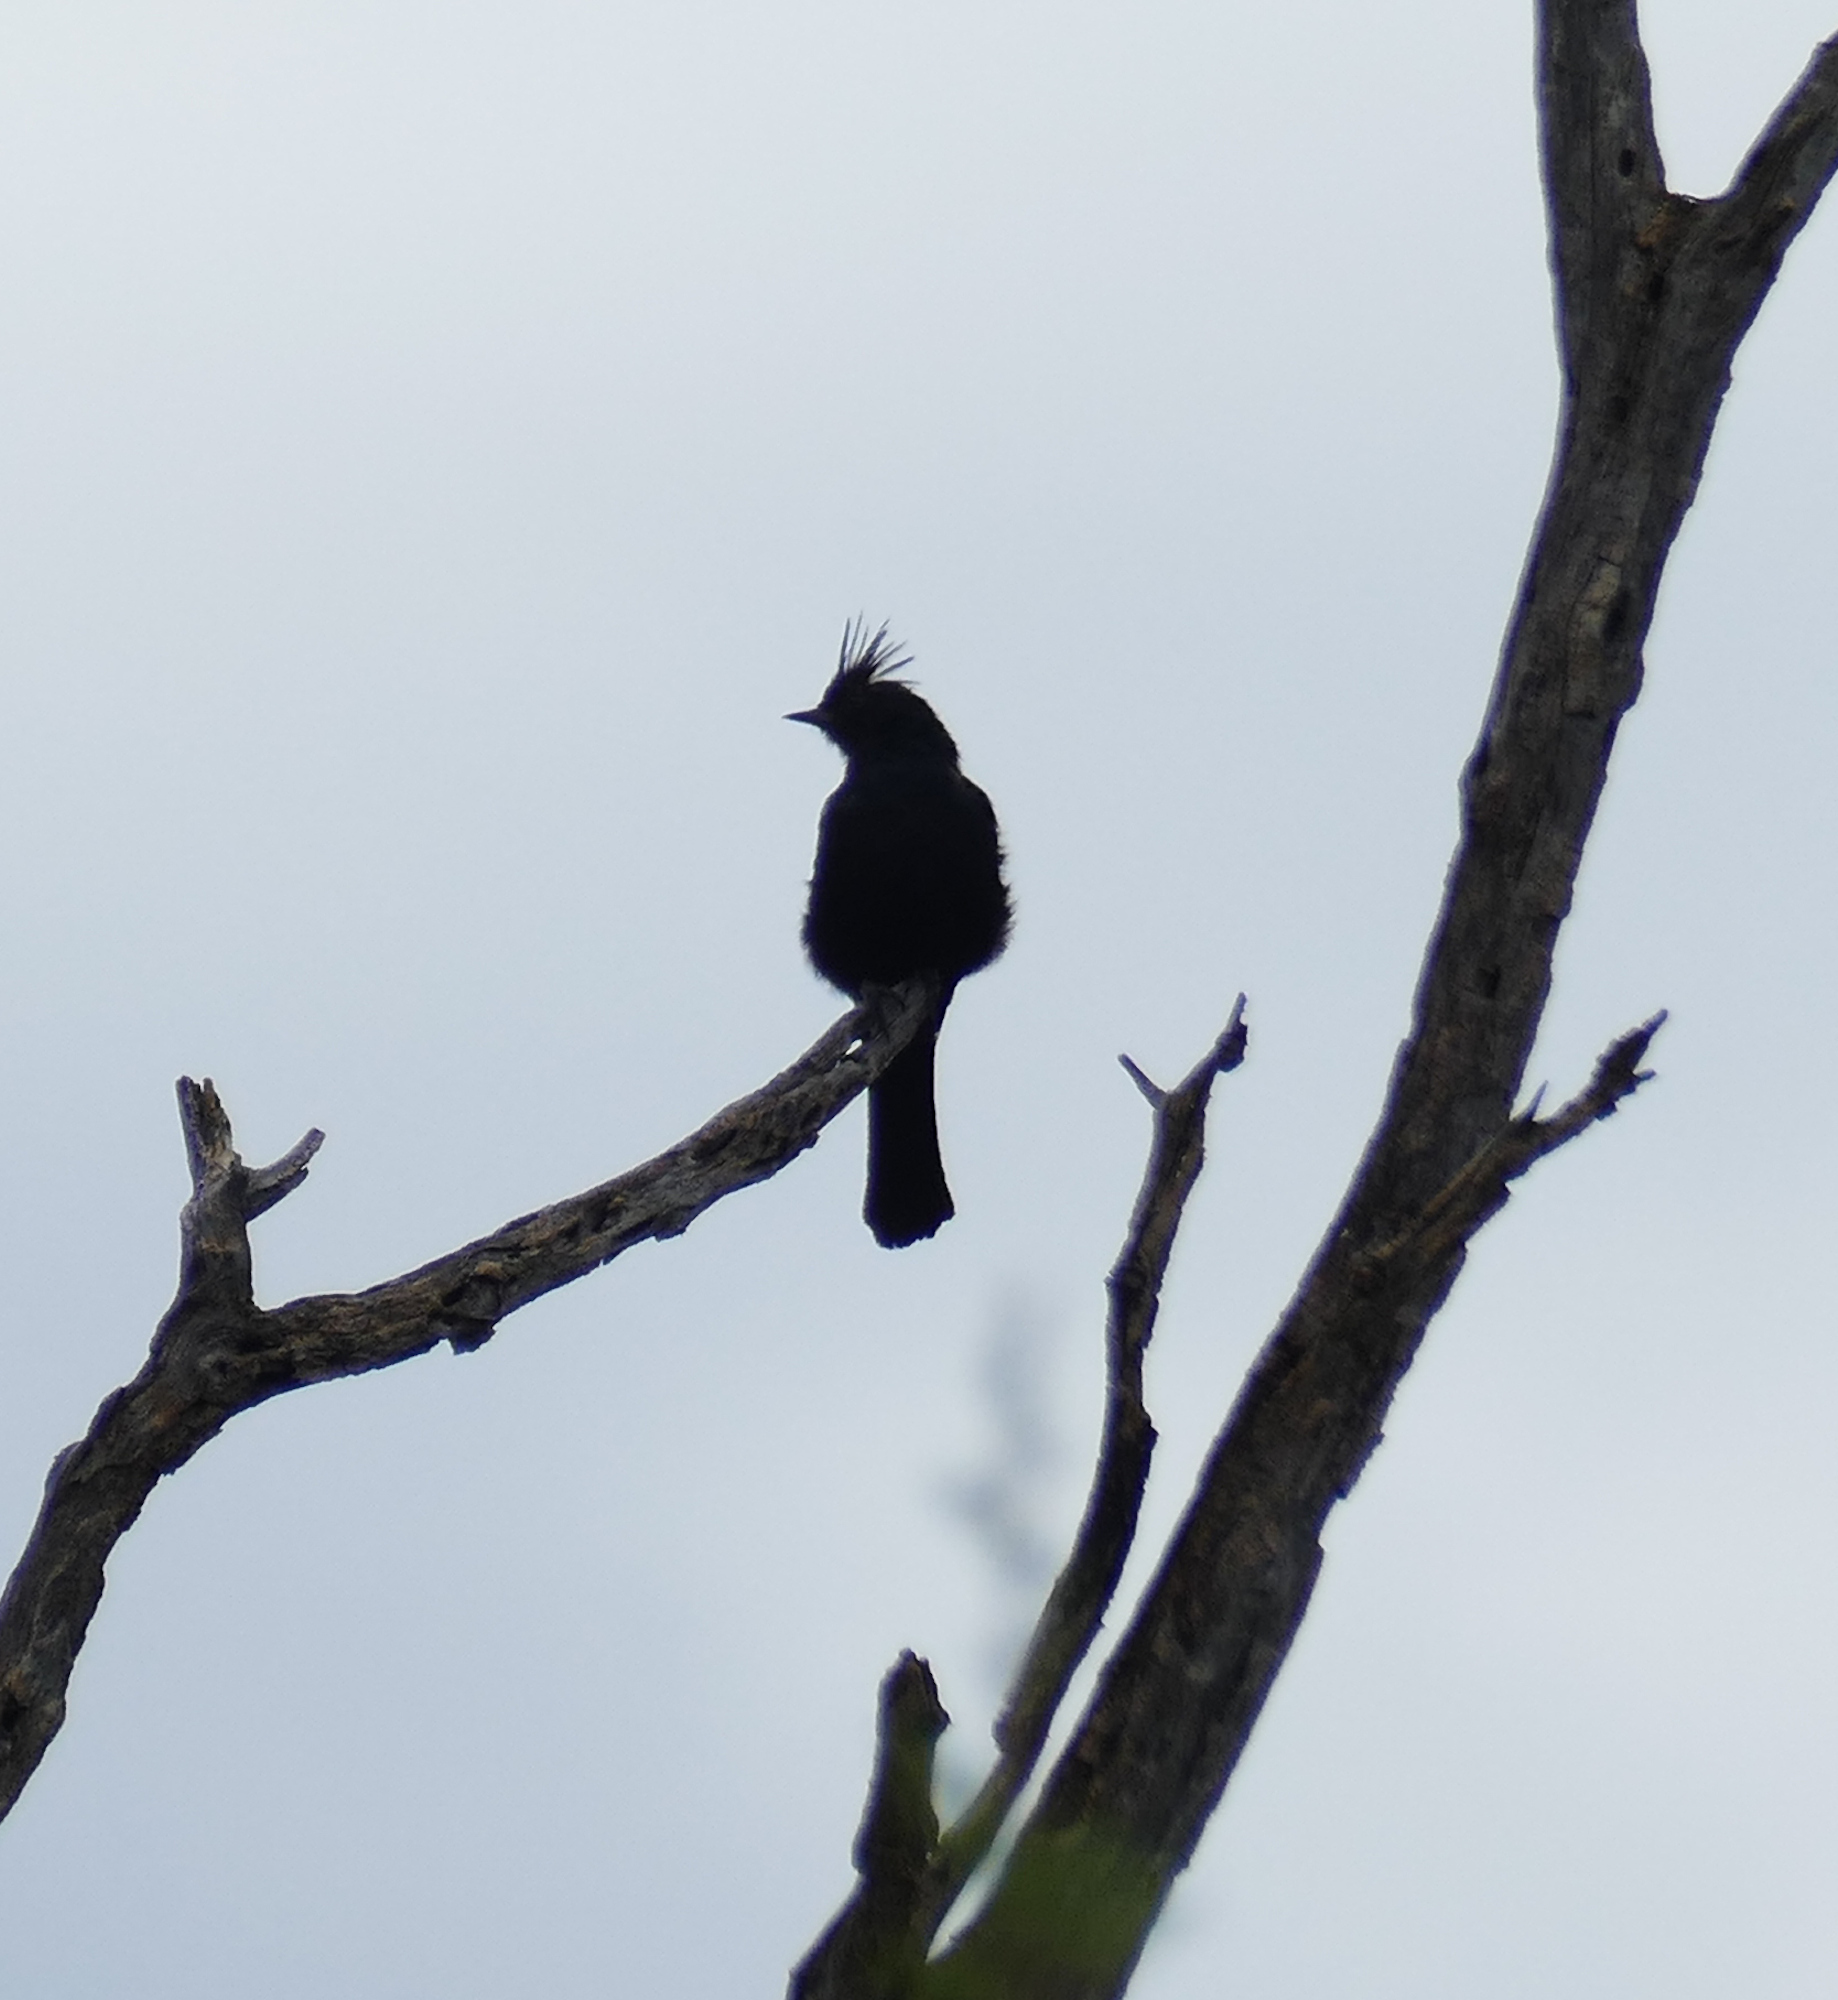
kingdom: Animalia
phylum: Chordata
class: Aves
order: Passeriformes
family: Ptilogonatidae
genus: Phainopepla
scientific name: Phainopepla nitens
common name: Phainopepla
